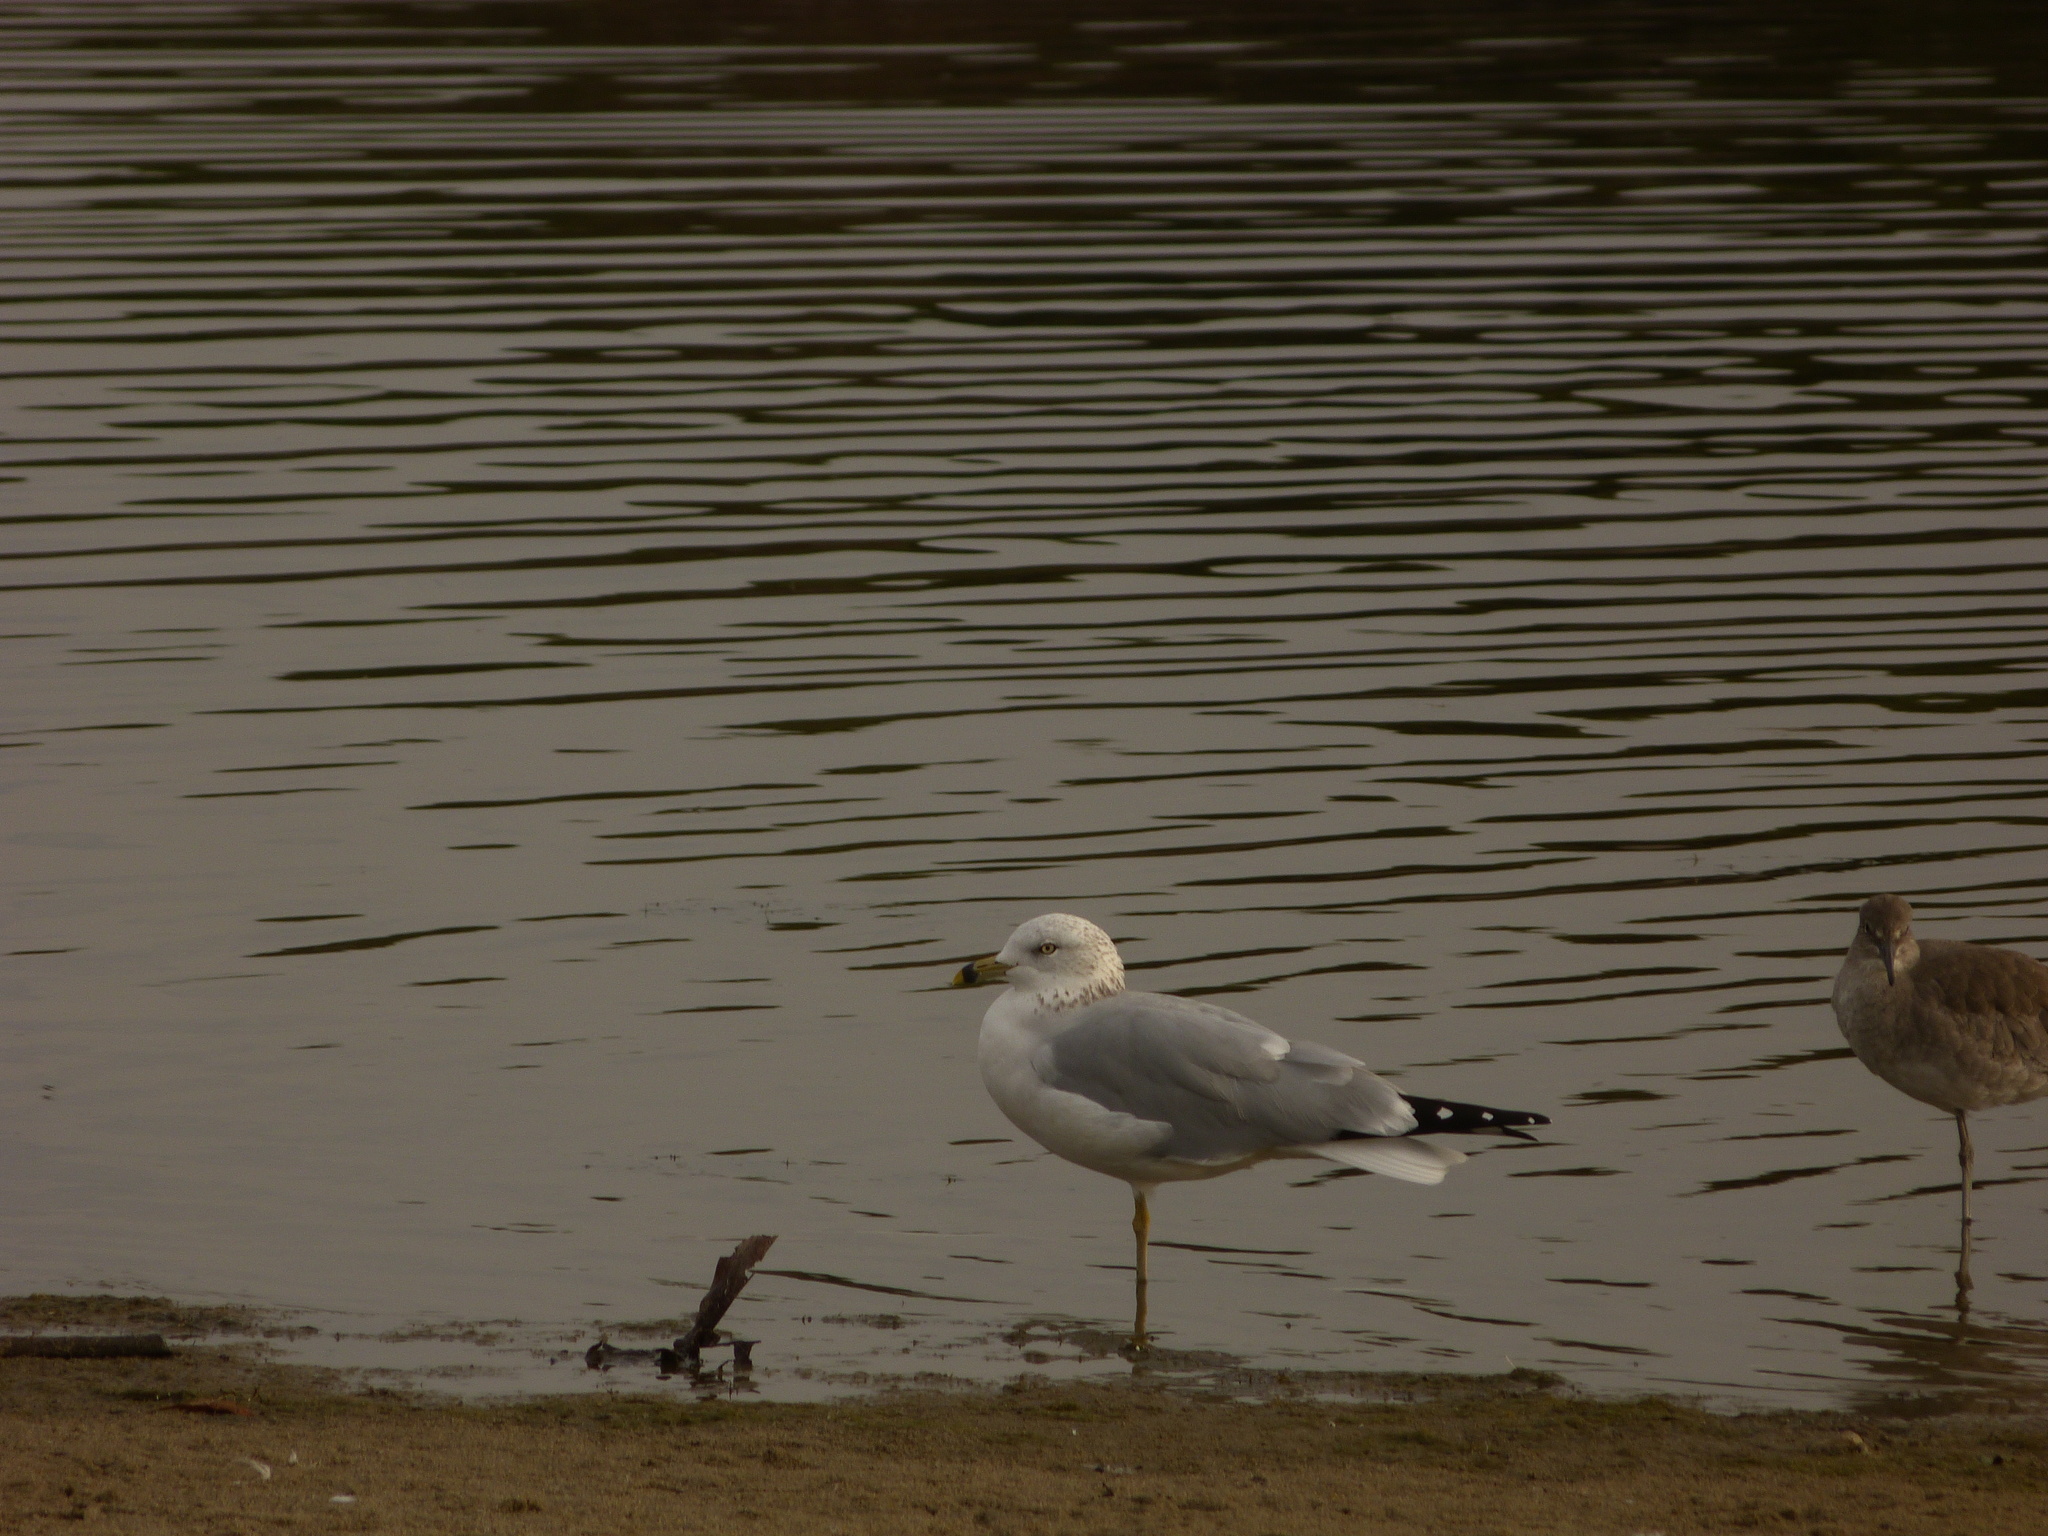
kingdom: Animalia
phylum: Chordata
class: Aves
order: Charadriiformes
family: Laridae
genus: Larus
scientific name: Larus delawarensis
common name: Ring-billed gull
